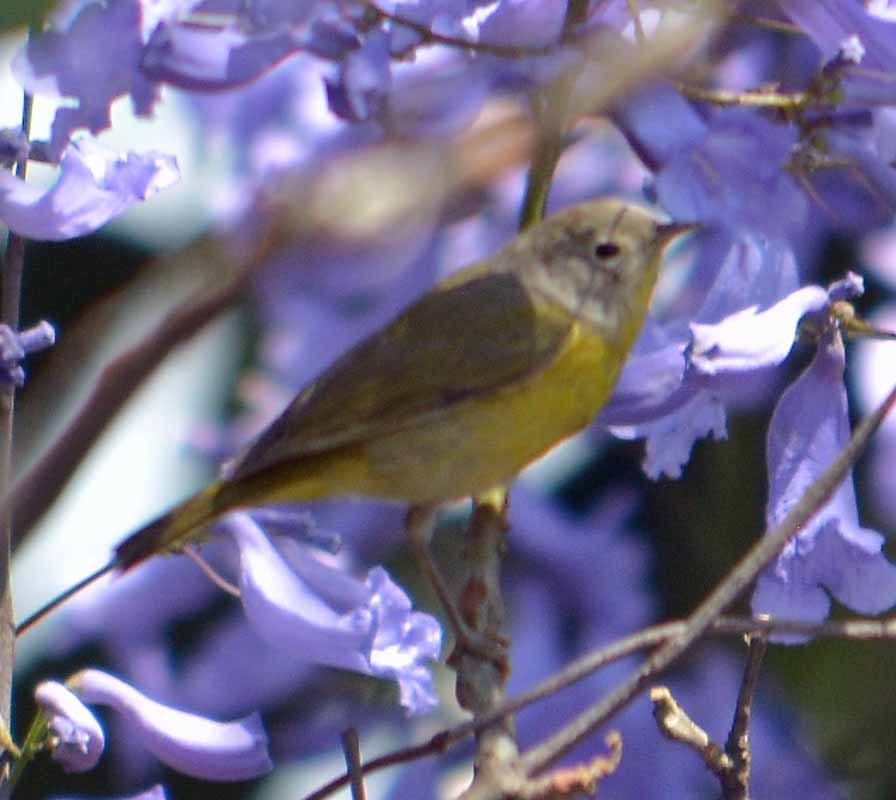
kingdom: Animalia
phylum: Chordata
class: Aves
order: Passeriformes
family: Parulidae
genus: Leiothlypis
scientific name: Leiothlypis ruficapilla
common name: Nashville warbler
